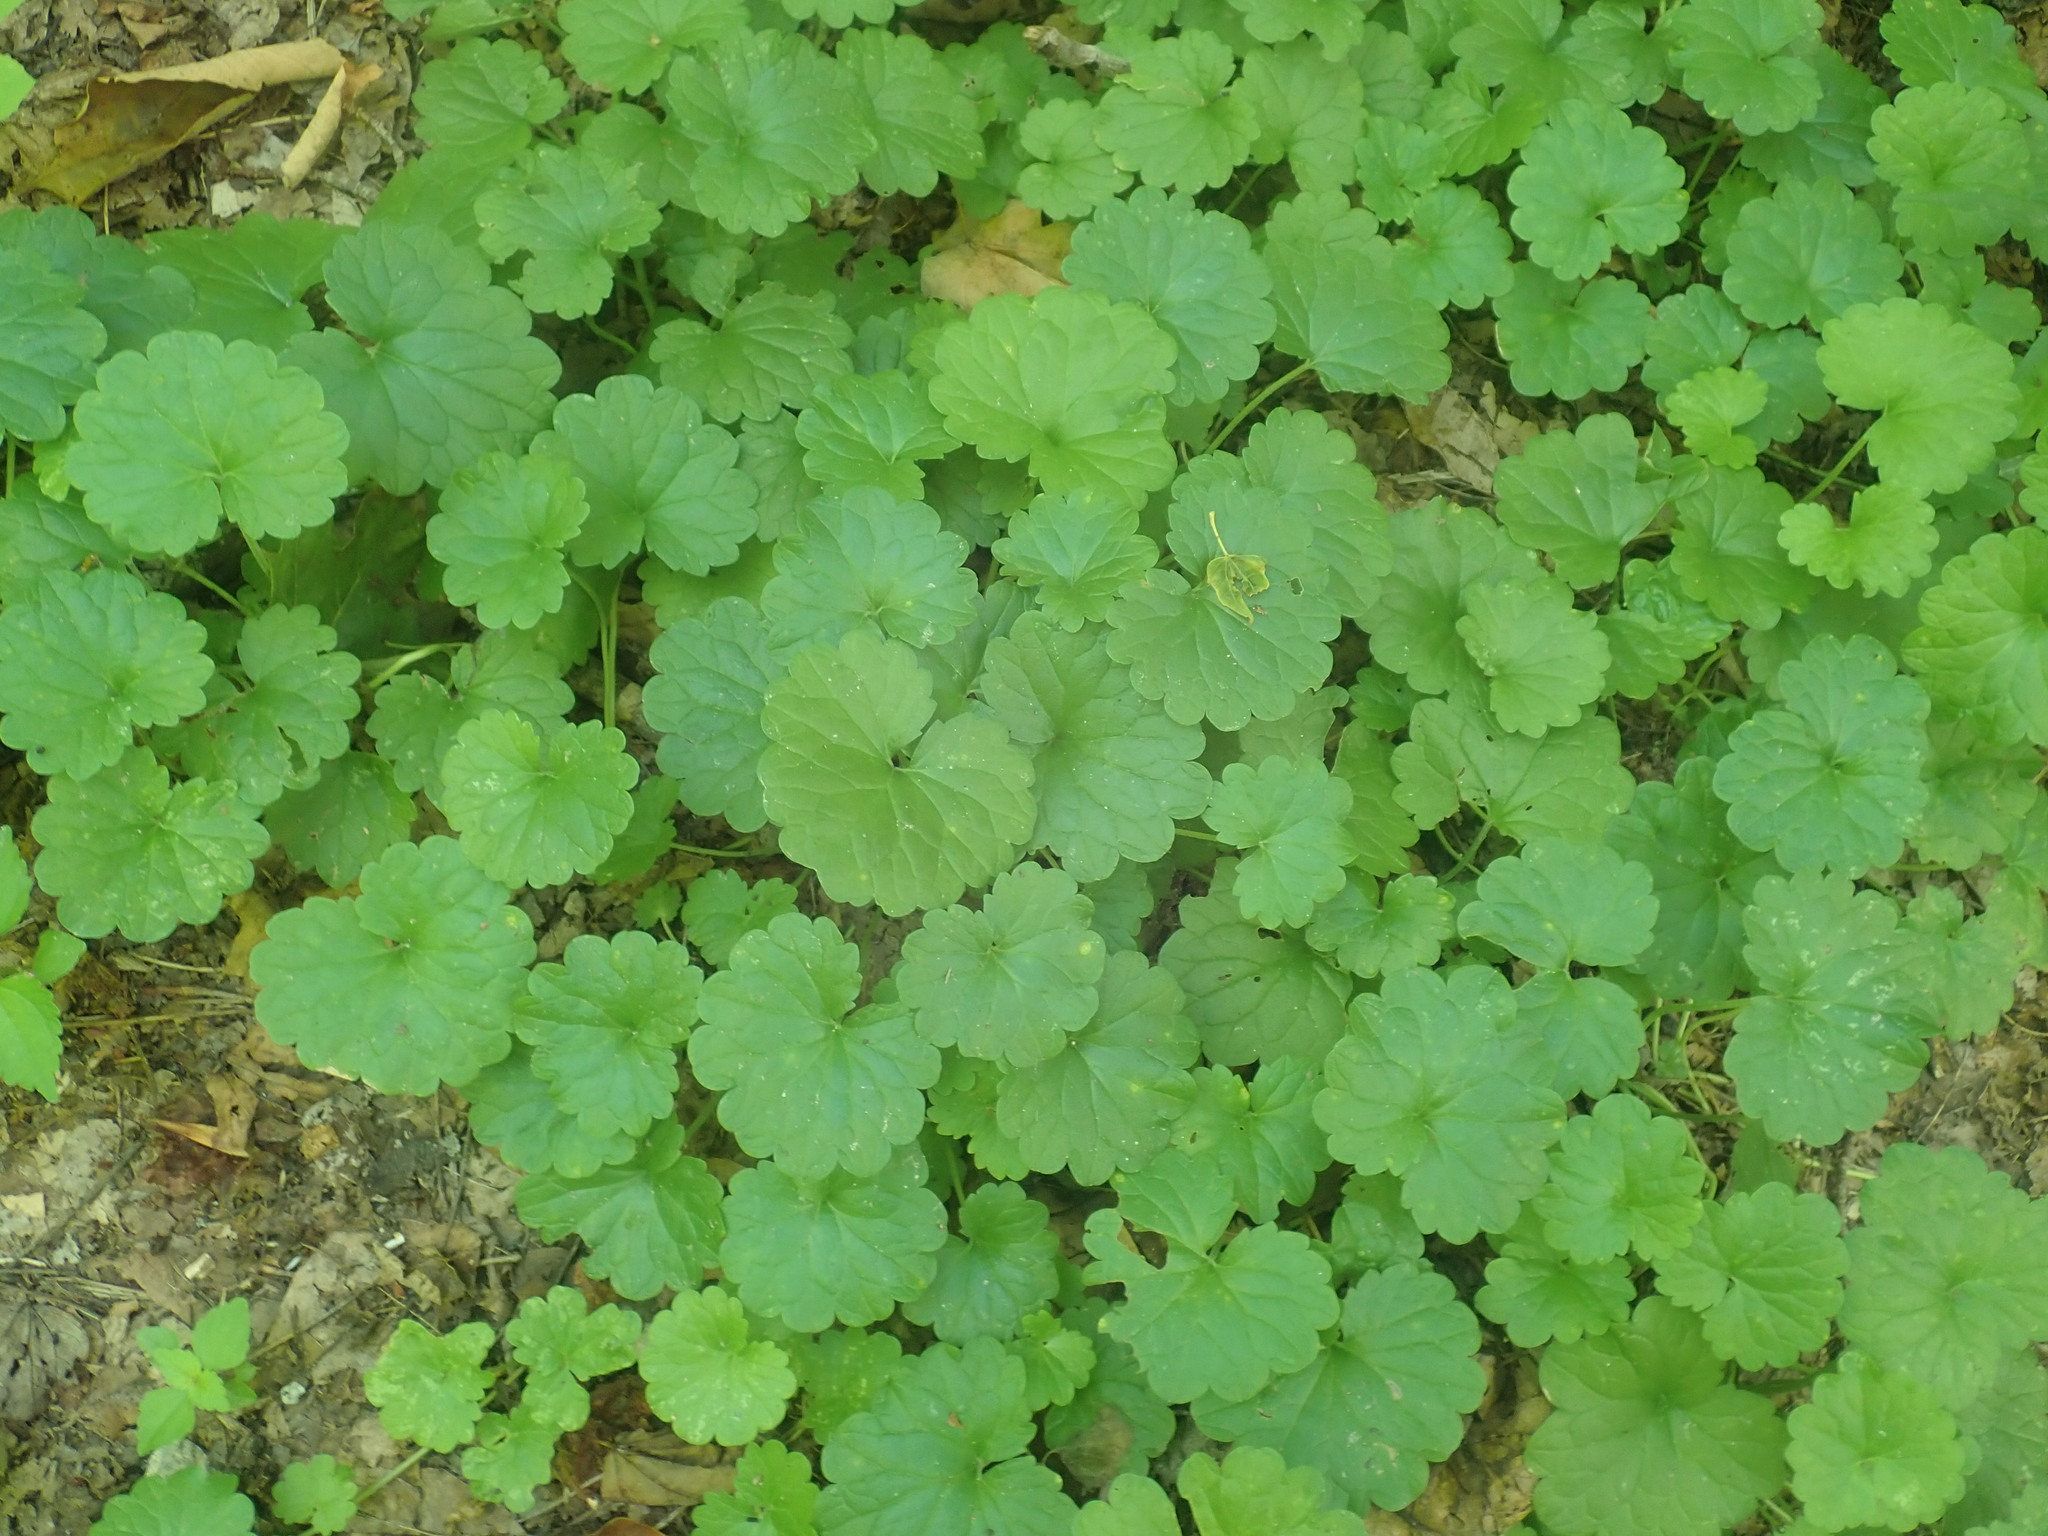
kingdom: Plantae
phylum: Tracheophyta
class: Magnoliopsida
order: Lamiales
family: Lamiaceae
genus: Glechoma
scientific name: Glechoma hederacea
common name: Ground ivy
